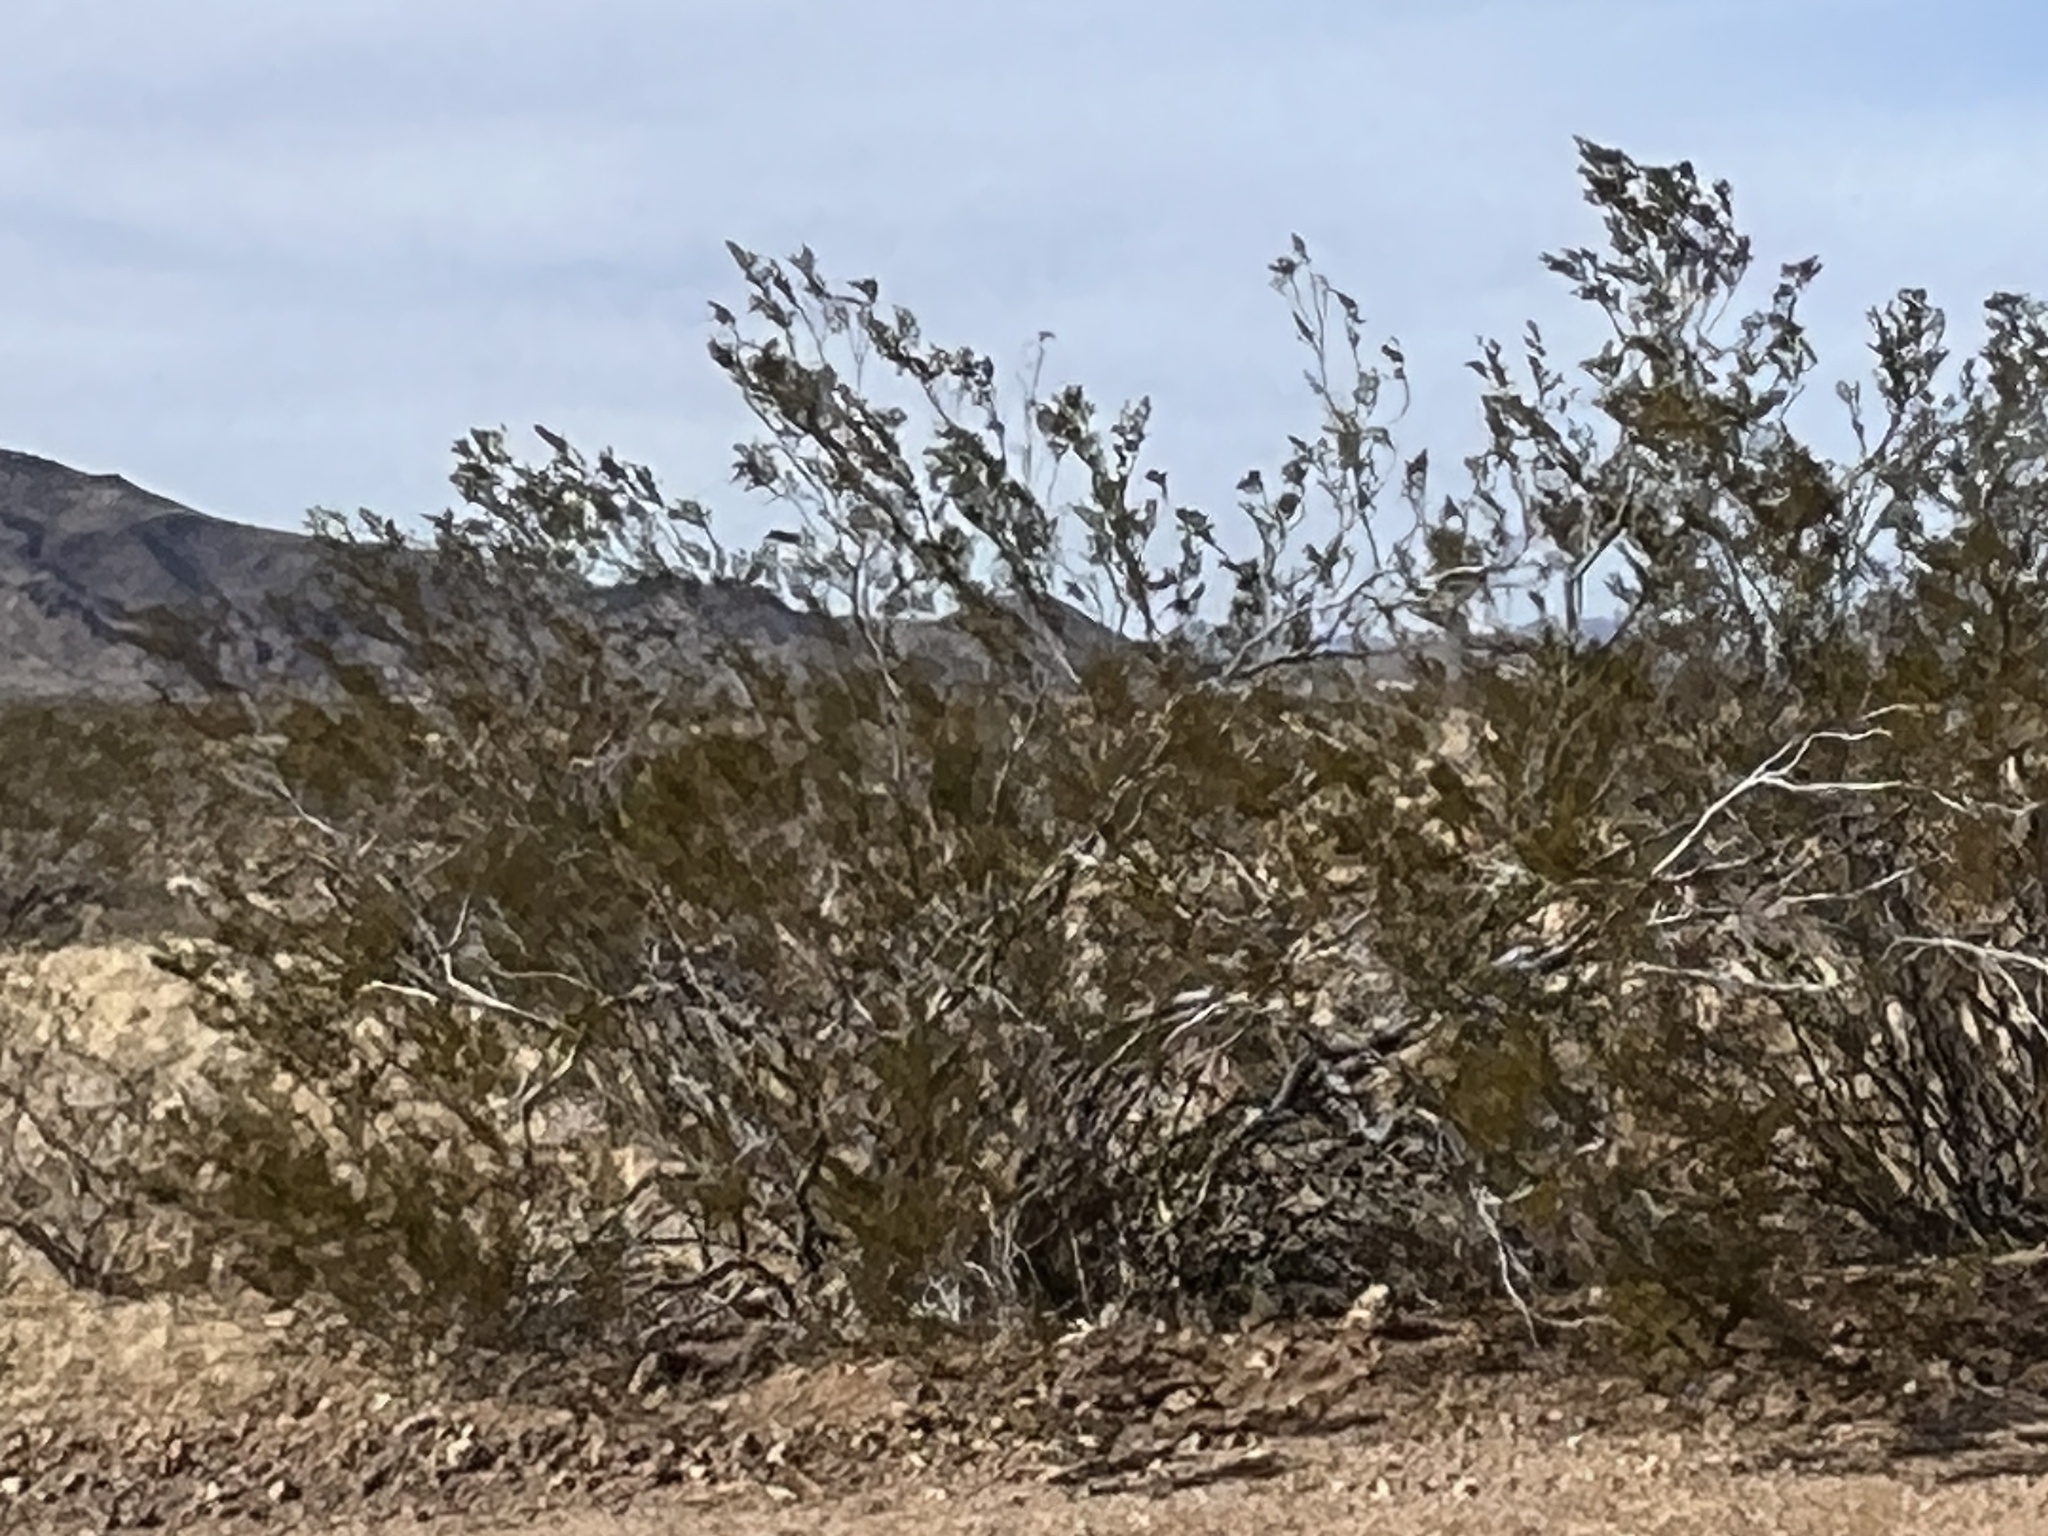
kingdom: Plantae
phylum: Tracheophyta
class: Magnoliopsida
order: Zygophyllales
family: Zygophyllaceae
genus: Larrea
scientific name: Larrea tridentata
